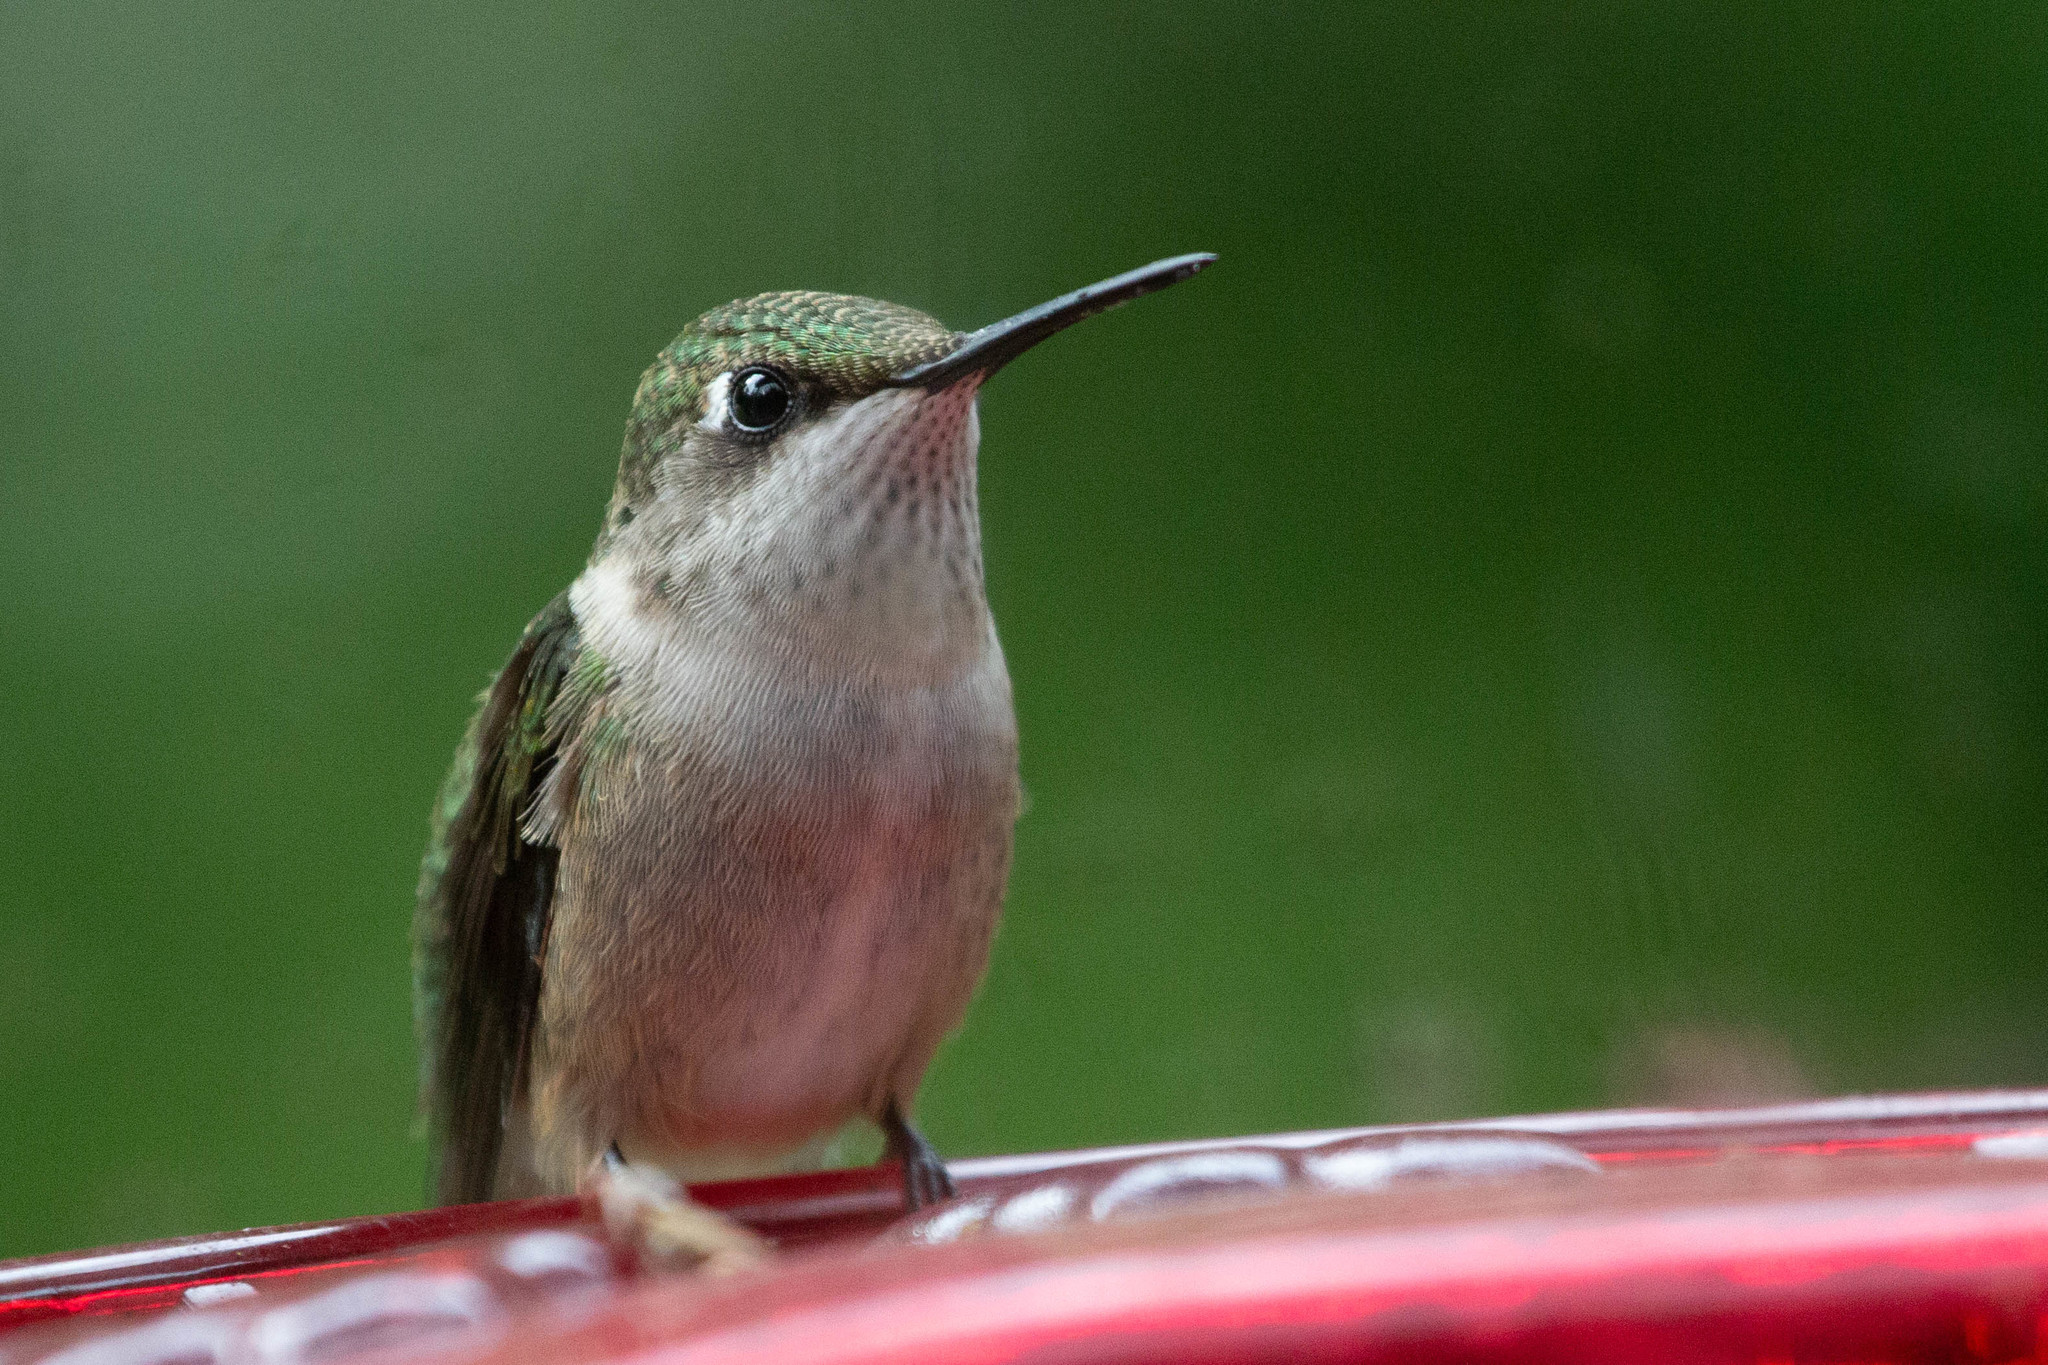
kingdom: Animalia
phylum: Chordata
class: Aves
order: Apodiformes
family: Trochilidae
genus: Archilochus
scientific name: Archilochus colubris
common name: Ruby-throated hummingbird
